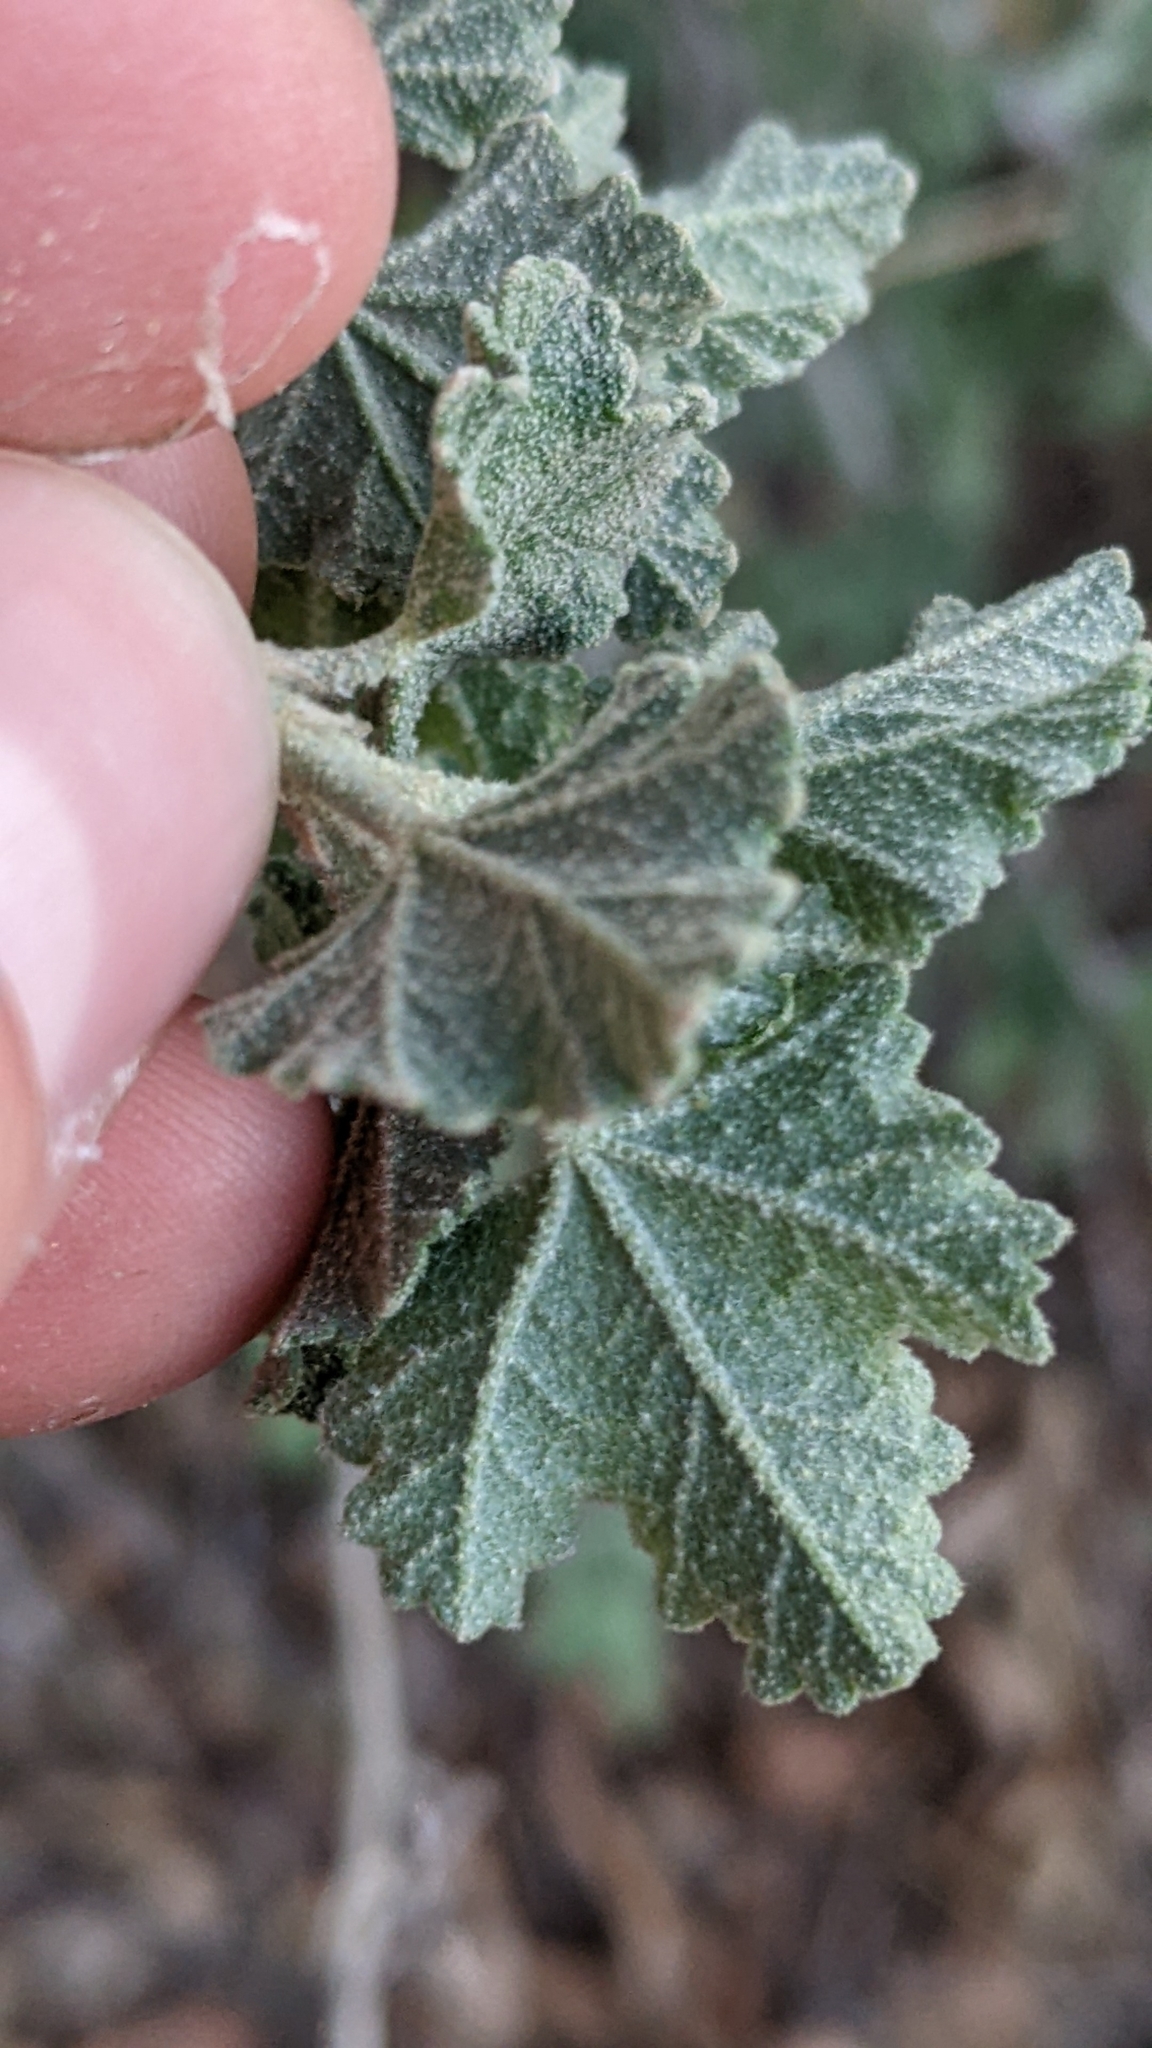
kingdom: Plantae
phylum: Tracheophyta
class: Magnoliopsida
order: Malvales
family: Malvaceae
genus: Malacothamnus
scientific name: Malacothamnus fasciculatus
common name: Sant cruz island bush-mallow
